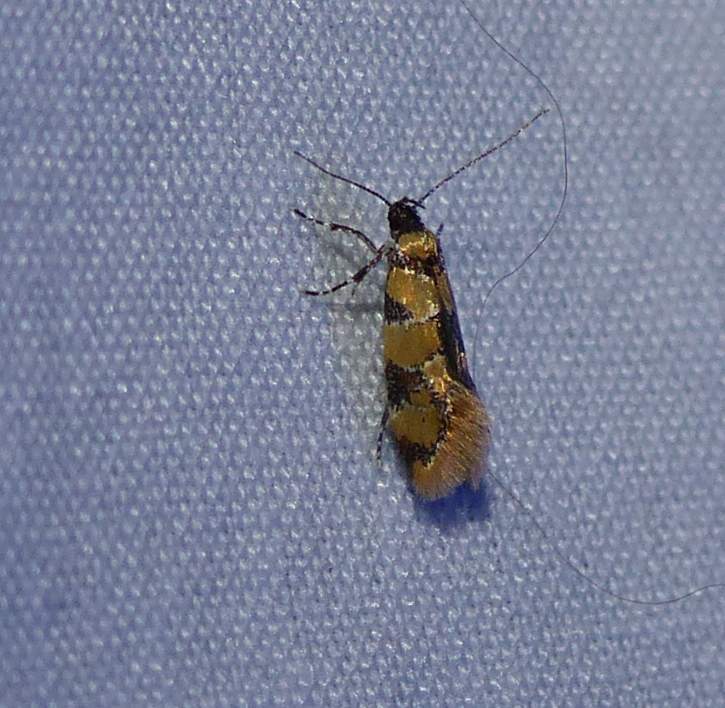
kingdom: Animalia
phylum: Arthropoda
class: Insecta
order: Lepidoptera
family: Oecophoridae
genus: Decantha
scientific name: Decantha borkhausenii
